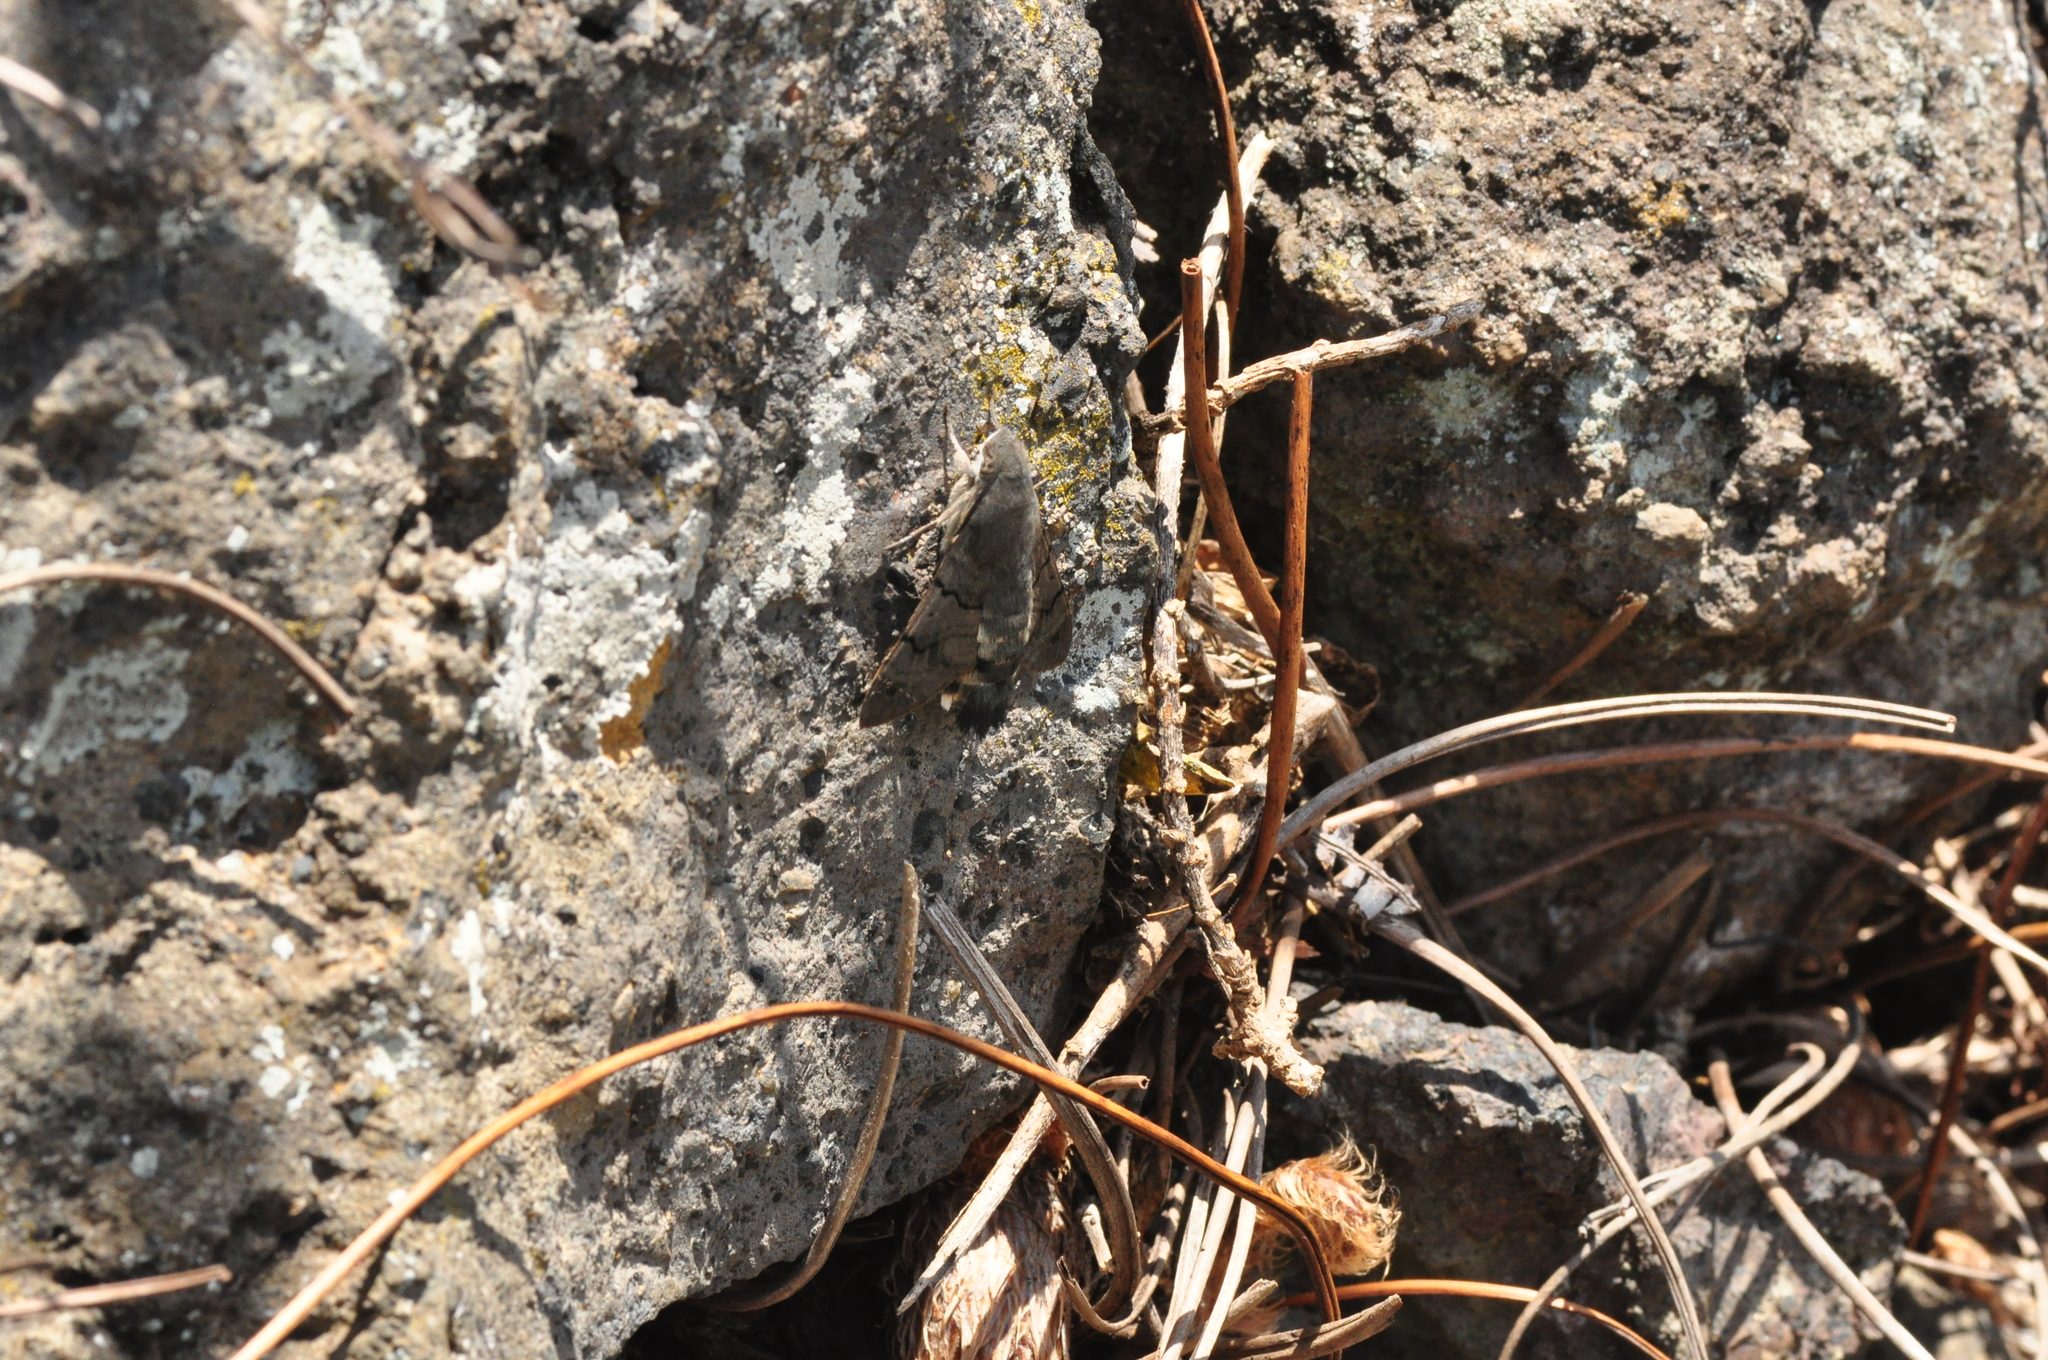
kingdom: Animalia
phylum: Arthropoda
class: Insecta
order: Lepidoptera
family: Sphingidae
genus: Macroglossum
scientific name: Macroglossum stellatarum
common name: Humming-bird hawk-moth
